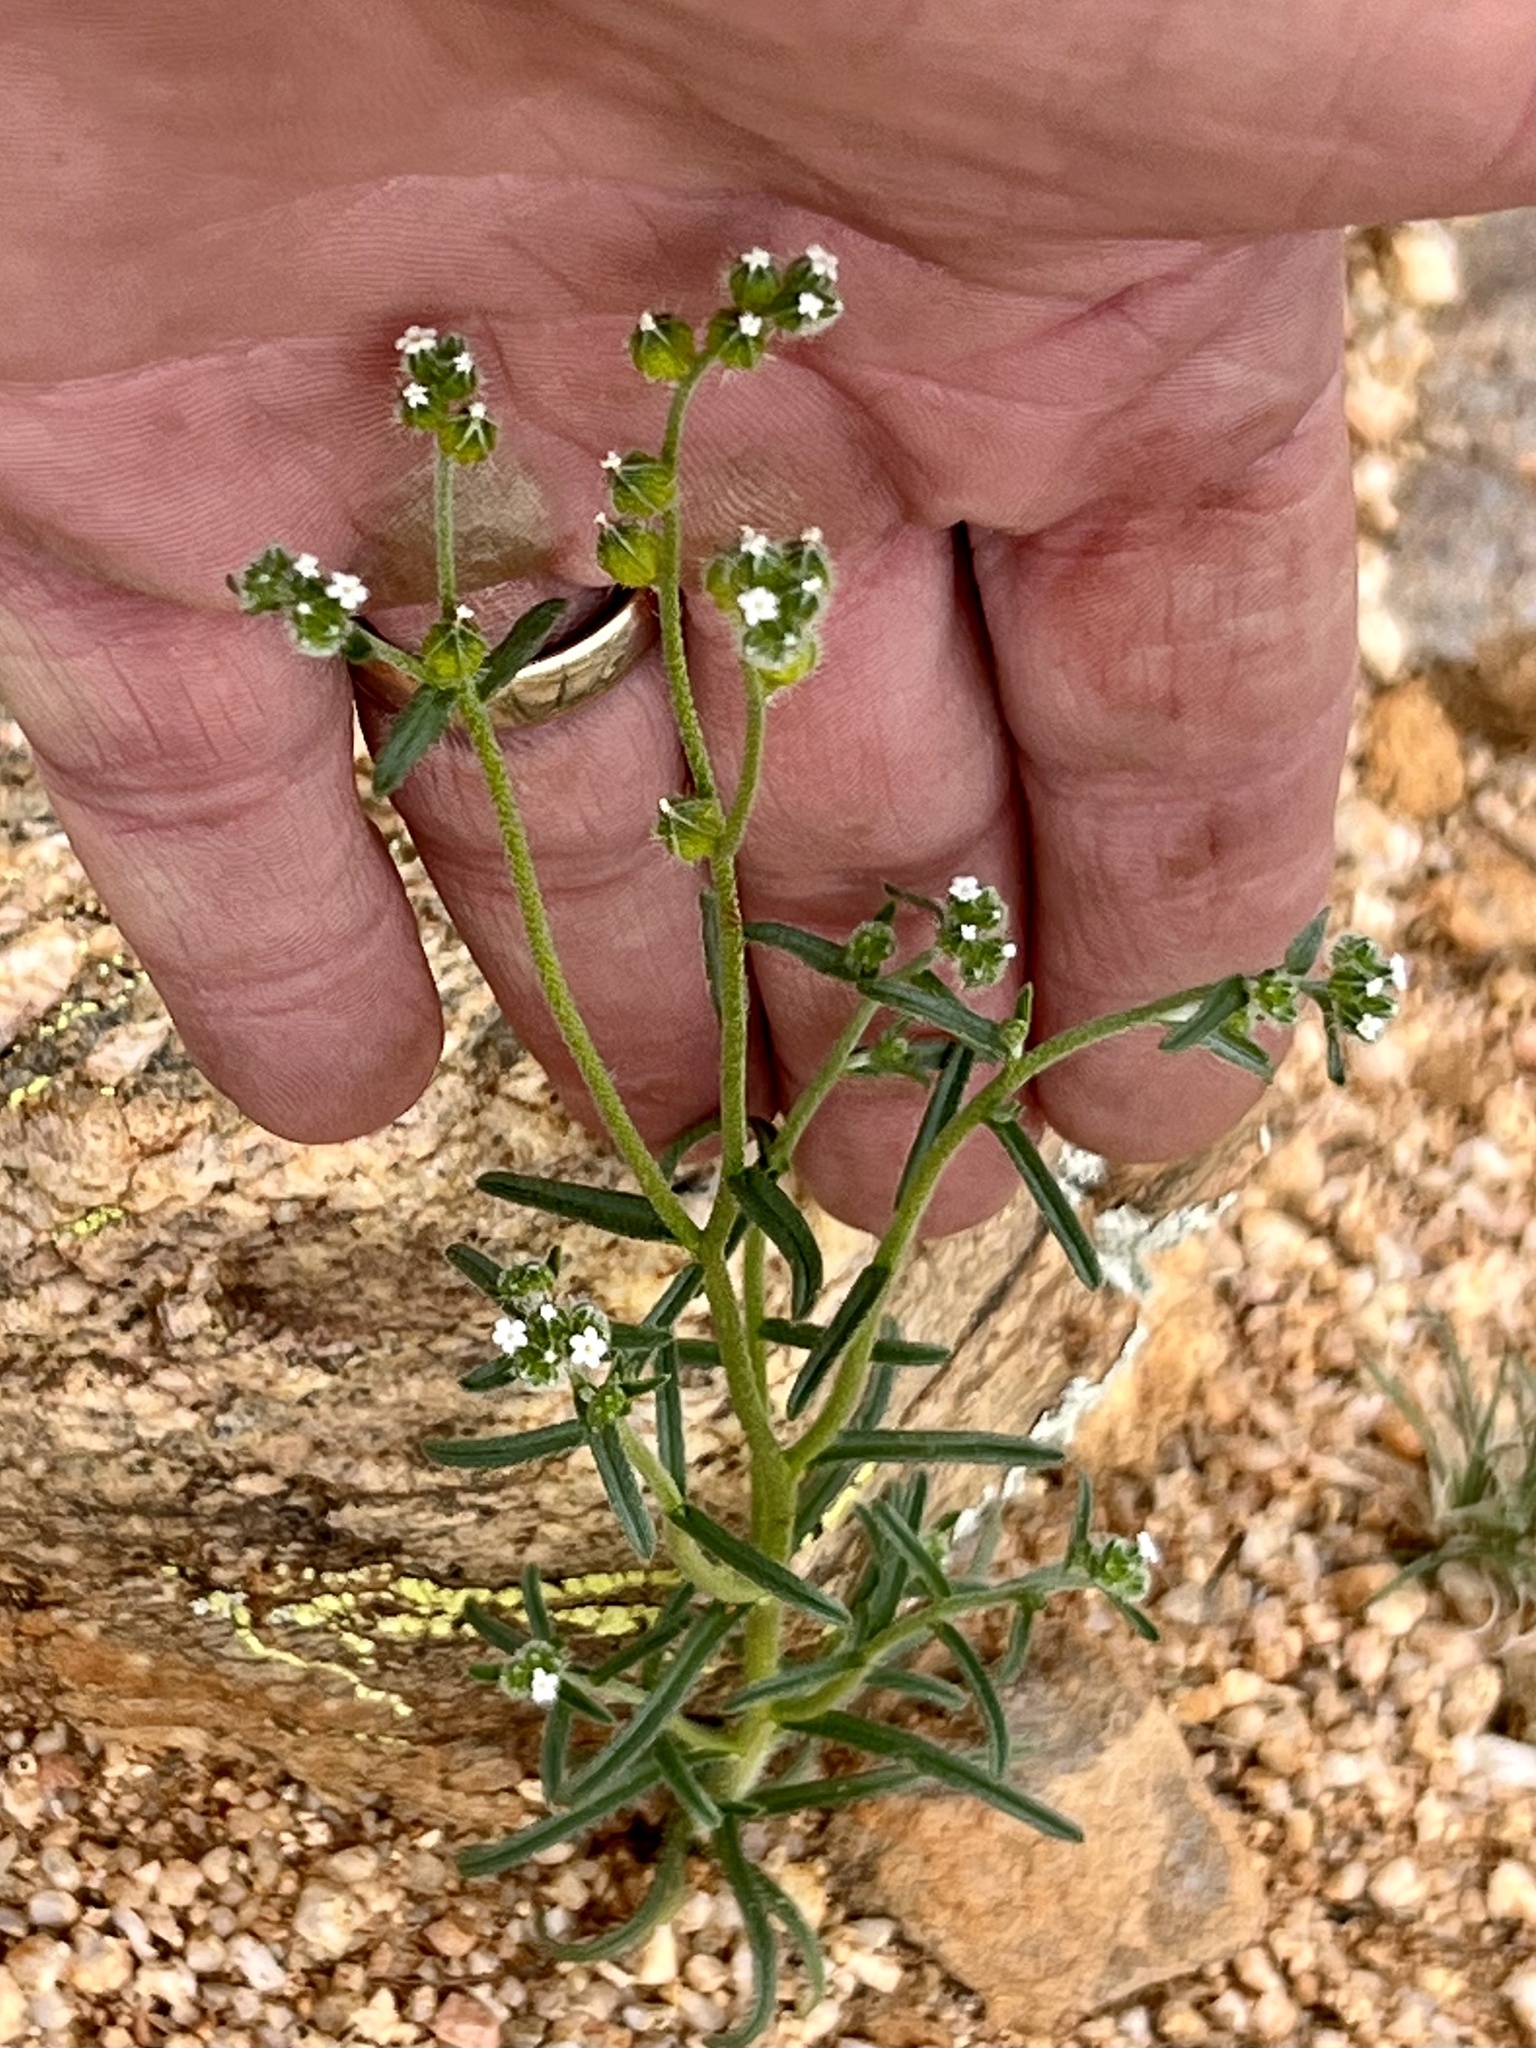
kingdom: Plantae
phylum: Tracheophyta
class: Magnoliopsida
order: Boraginales
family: Boraginaceae
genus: Cryptantha
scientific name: Cryptantha pterocarya
